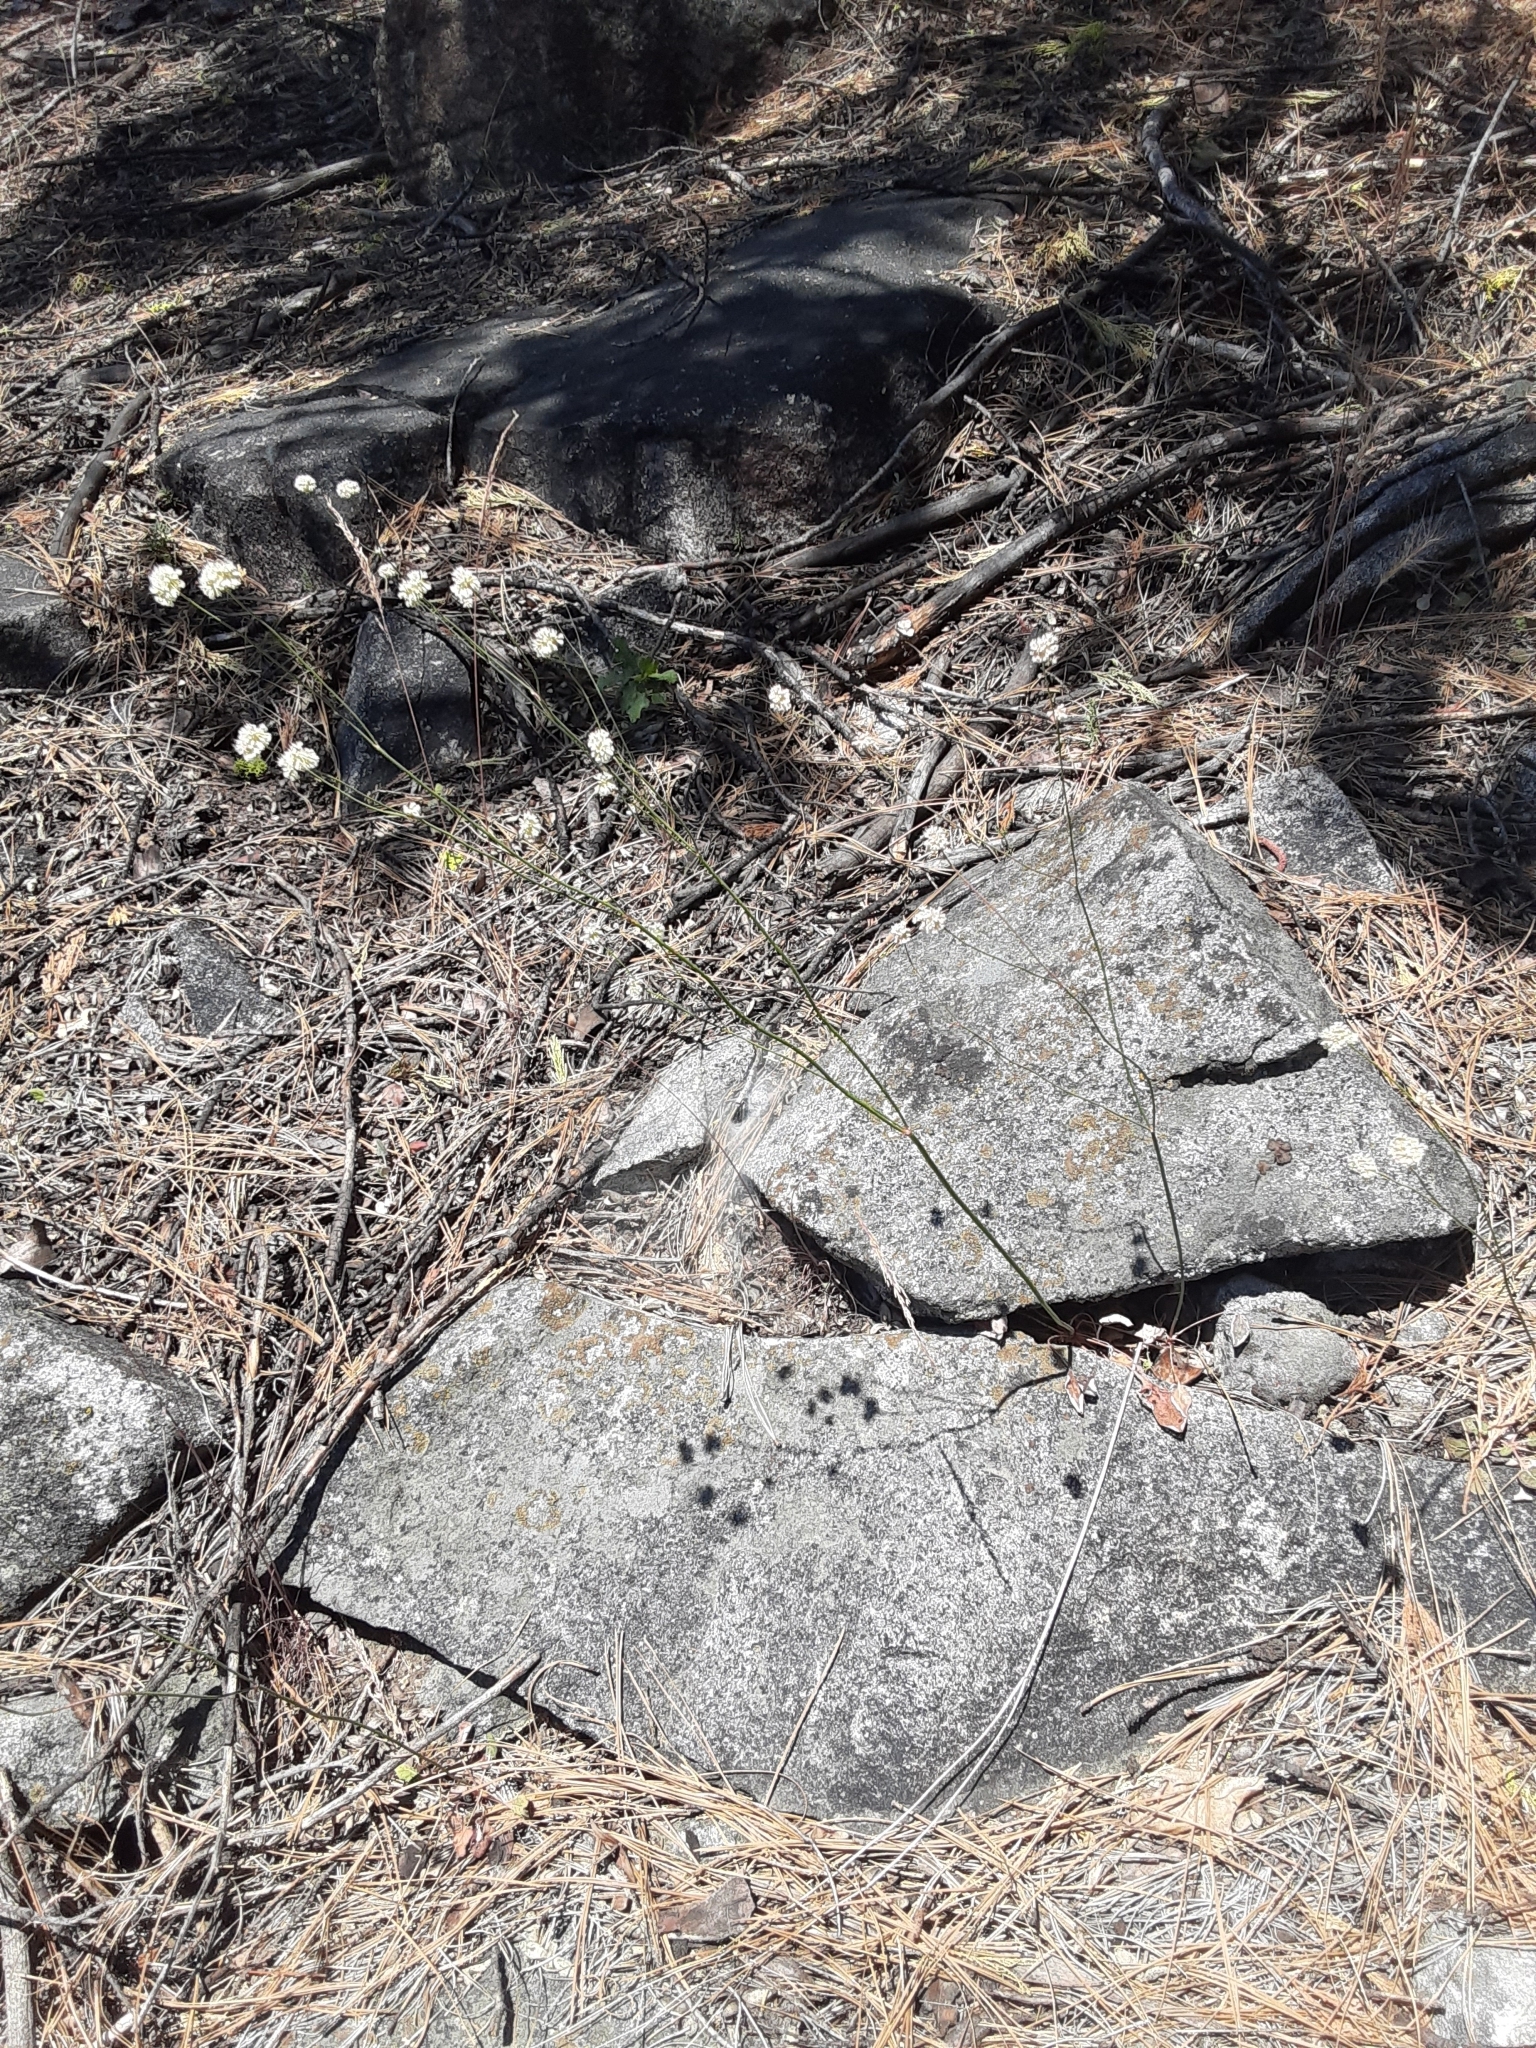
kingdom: Plantae
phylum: Tracheophyta
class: Magnoliopsida
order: Caryophyllales
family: Polygonaceae
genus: Eriogonum
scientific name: Eriogonum nudum
